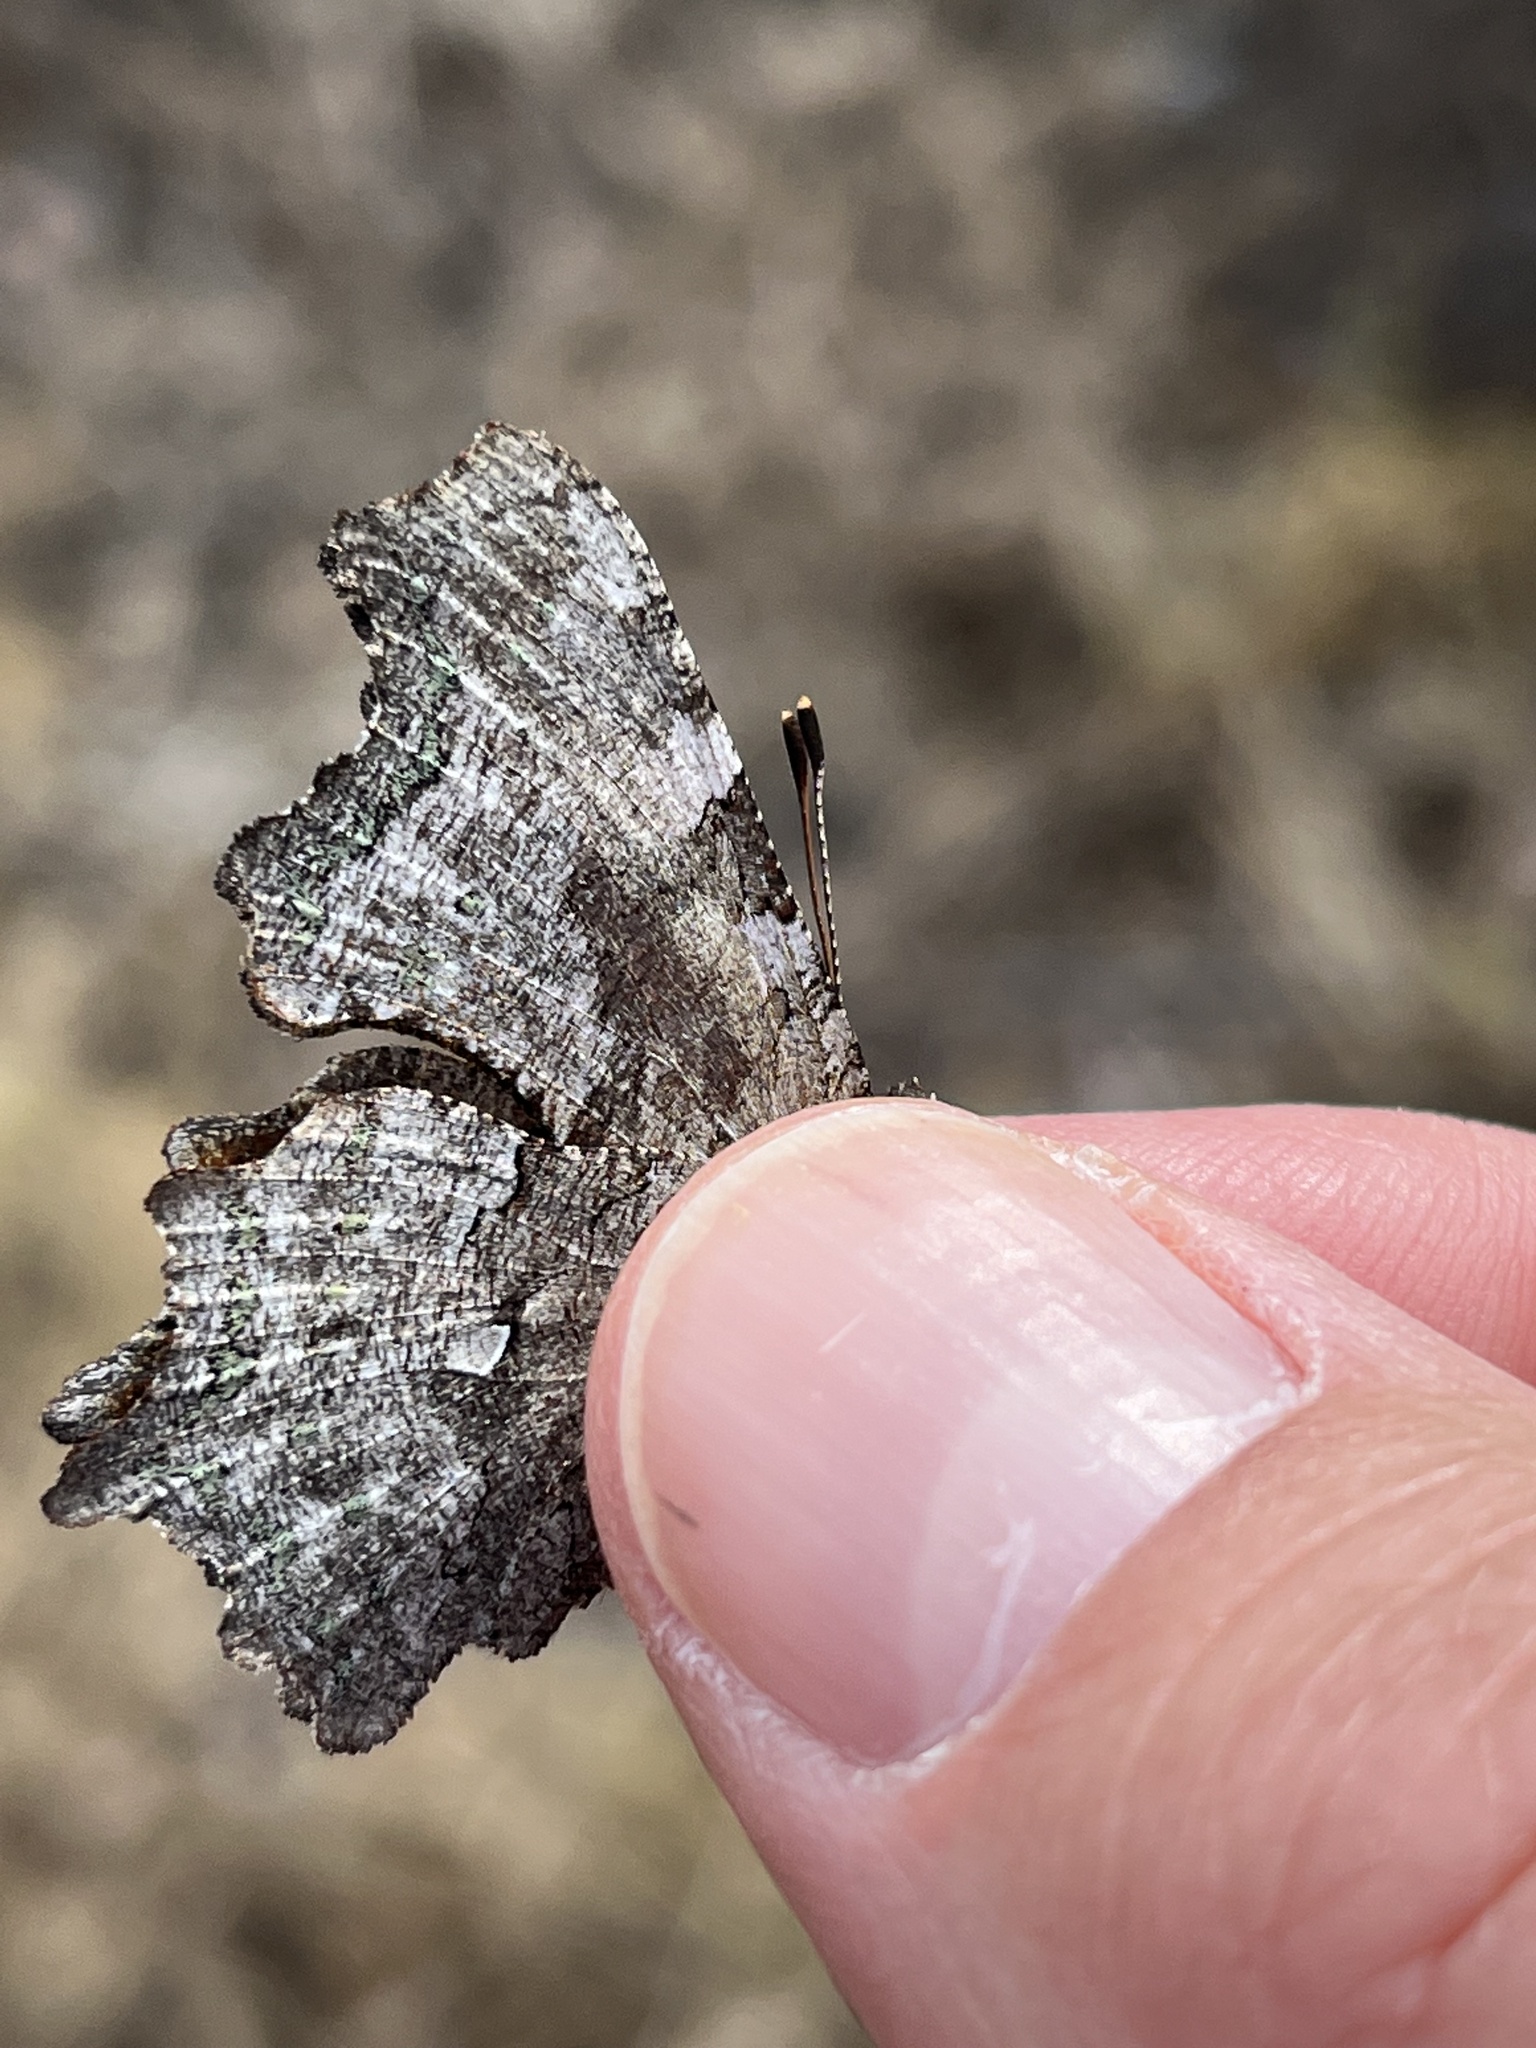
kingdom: Animalia
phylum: Arthropoda
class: Insecta
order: Lepidoptera
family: Nymphalidae
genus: Polygonia
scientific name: Polygonia faunus
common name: Green comma
